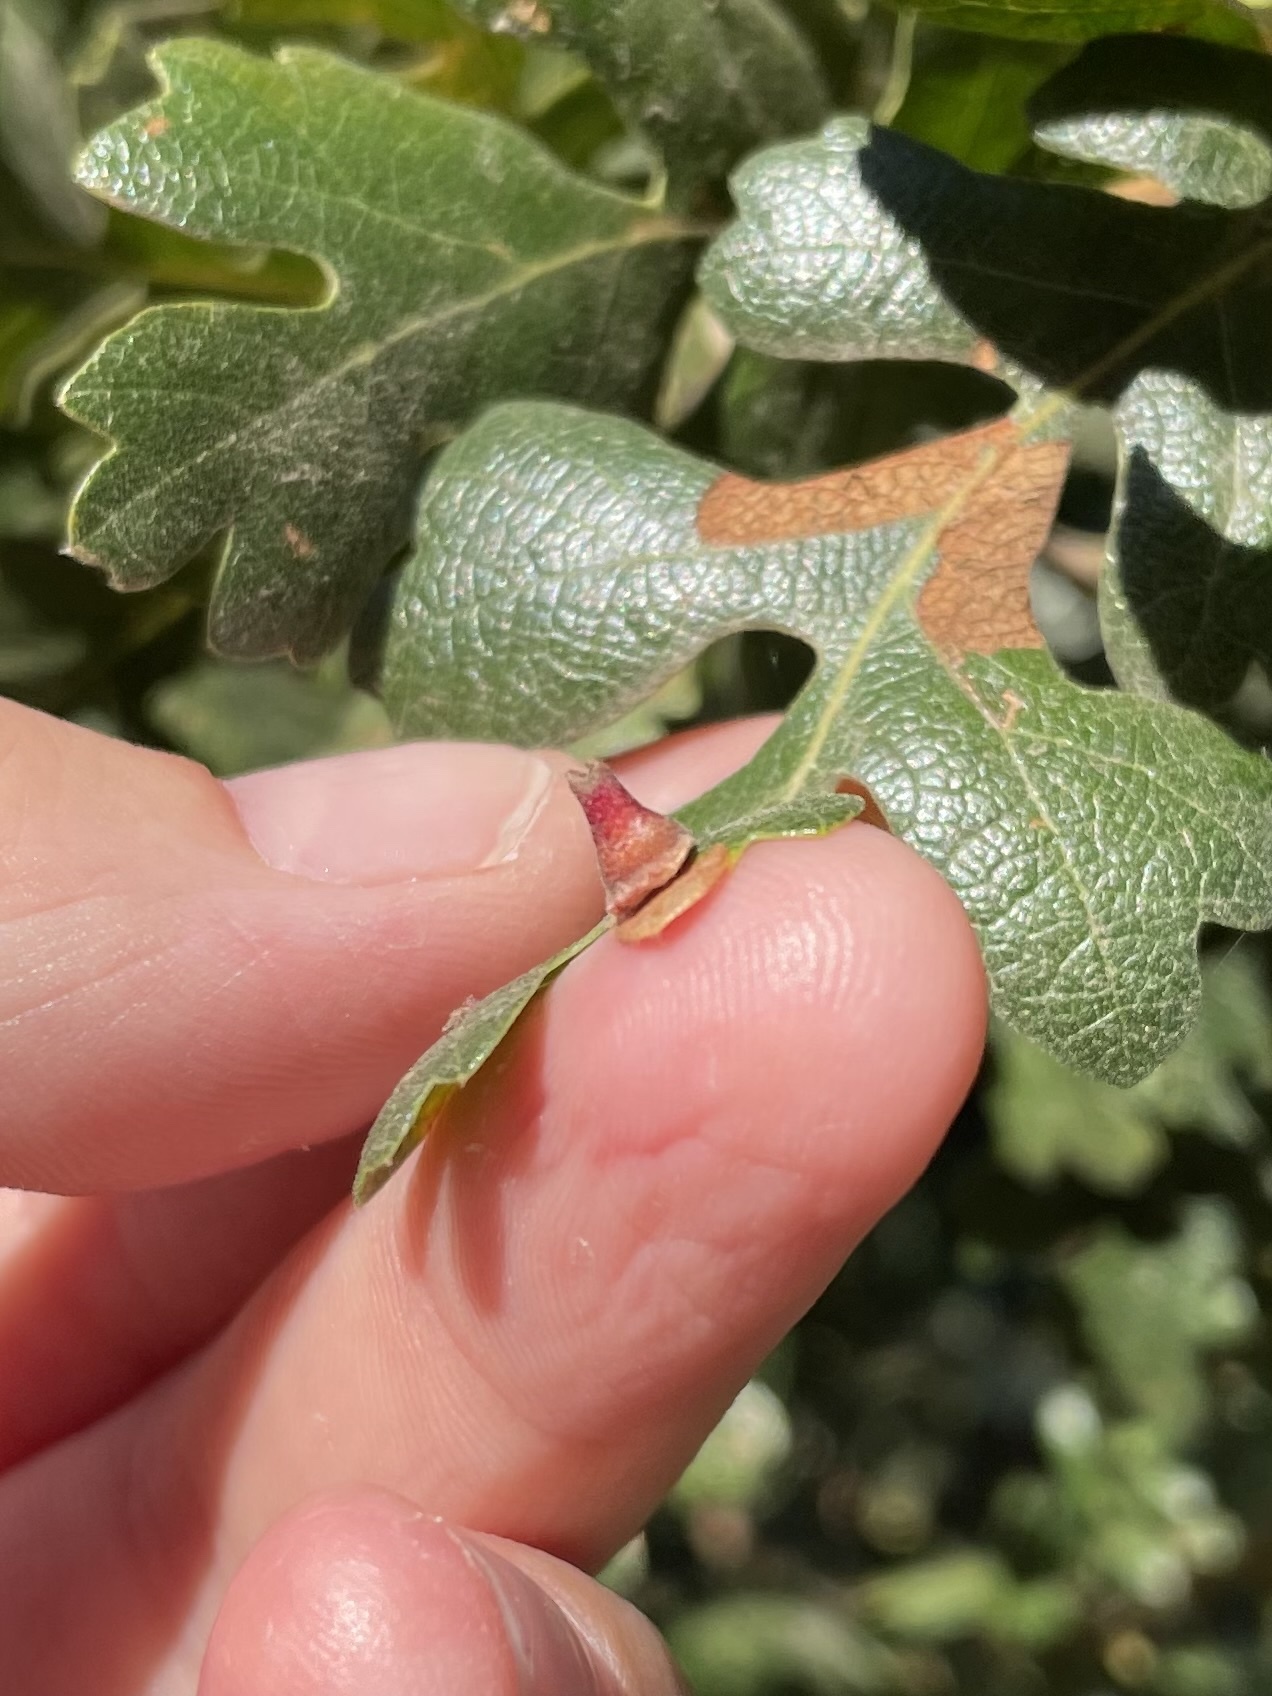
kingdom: Animalia
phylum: Arthropoda
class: Insecta
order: Hymenoptera
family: Cynipidae
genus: Andricus
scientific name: Andricus
